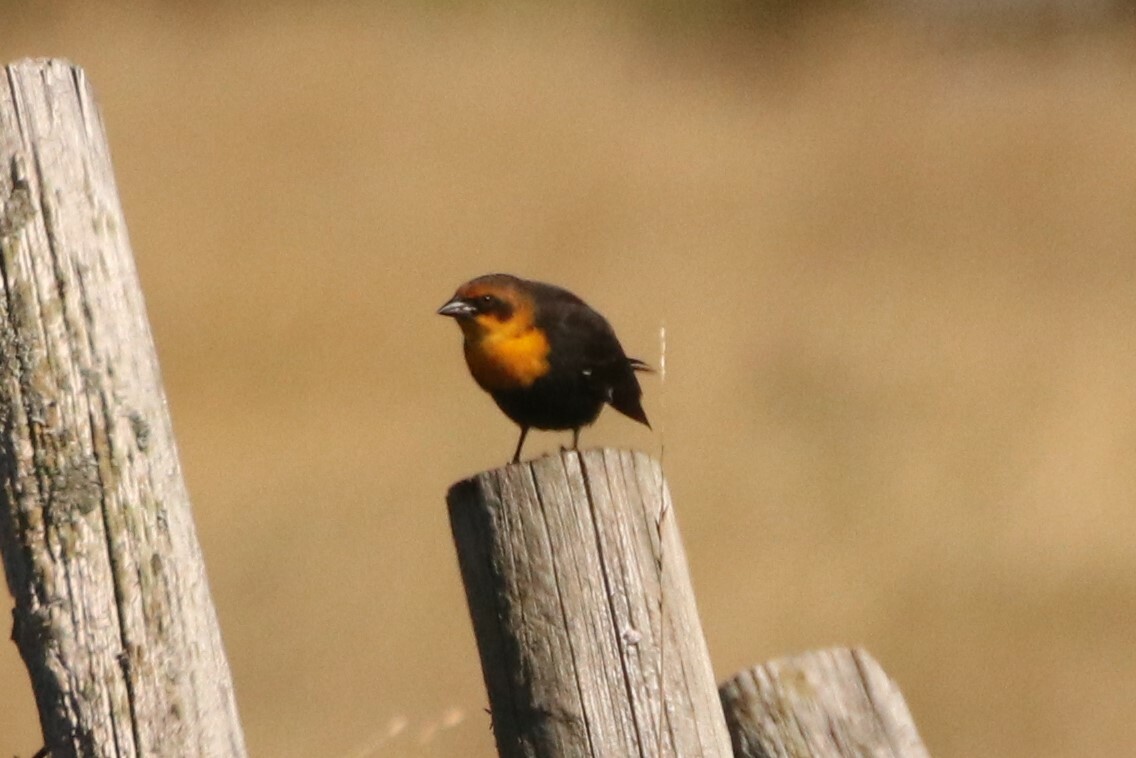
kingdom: Animalia
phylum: Chordata
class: Aves
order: Passeriformes
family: Icteridae
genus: Xanthocephalus
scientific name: Xanthocephalus xanthocephalus
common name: Yellow-headed blackbird
